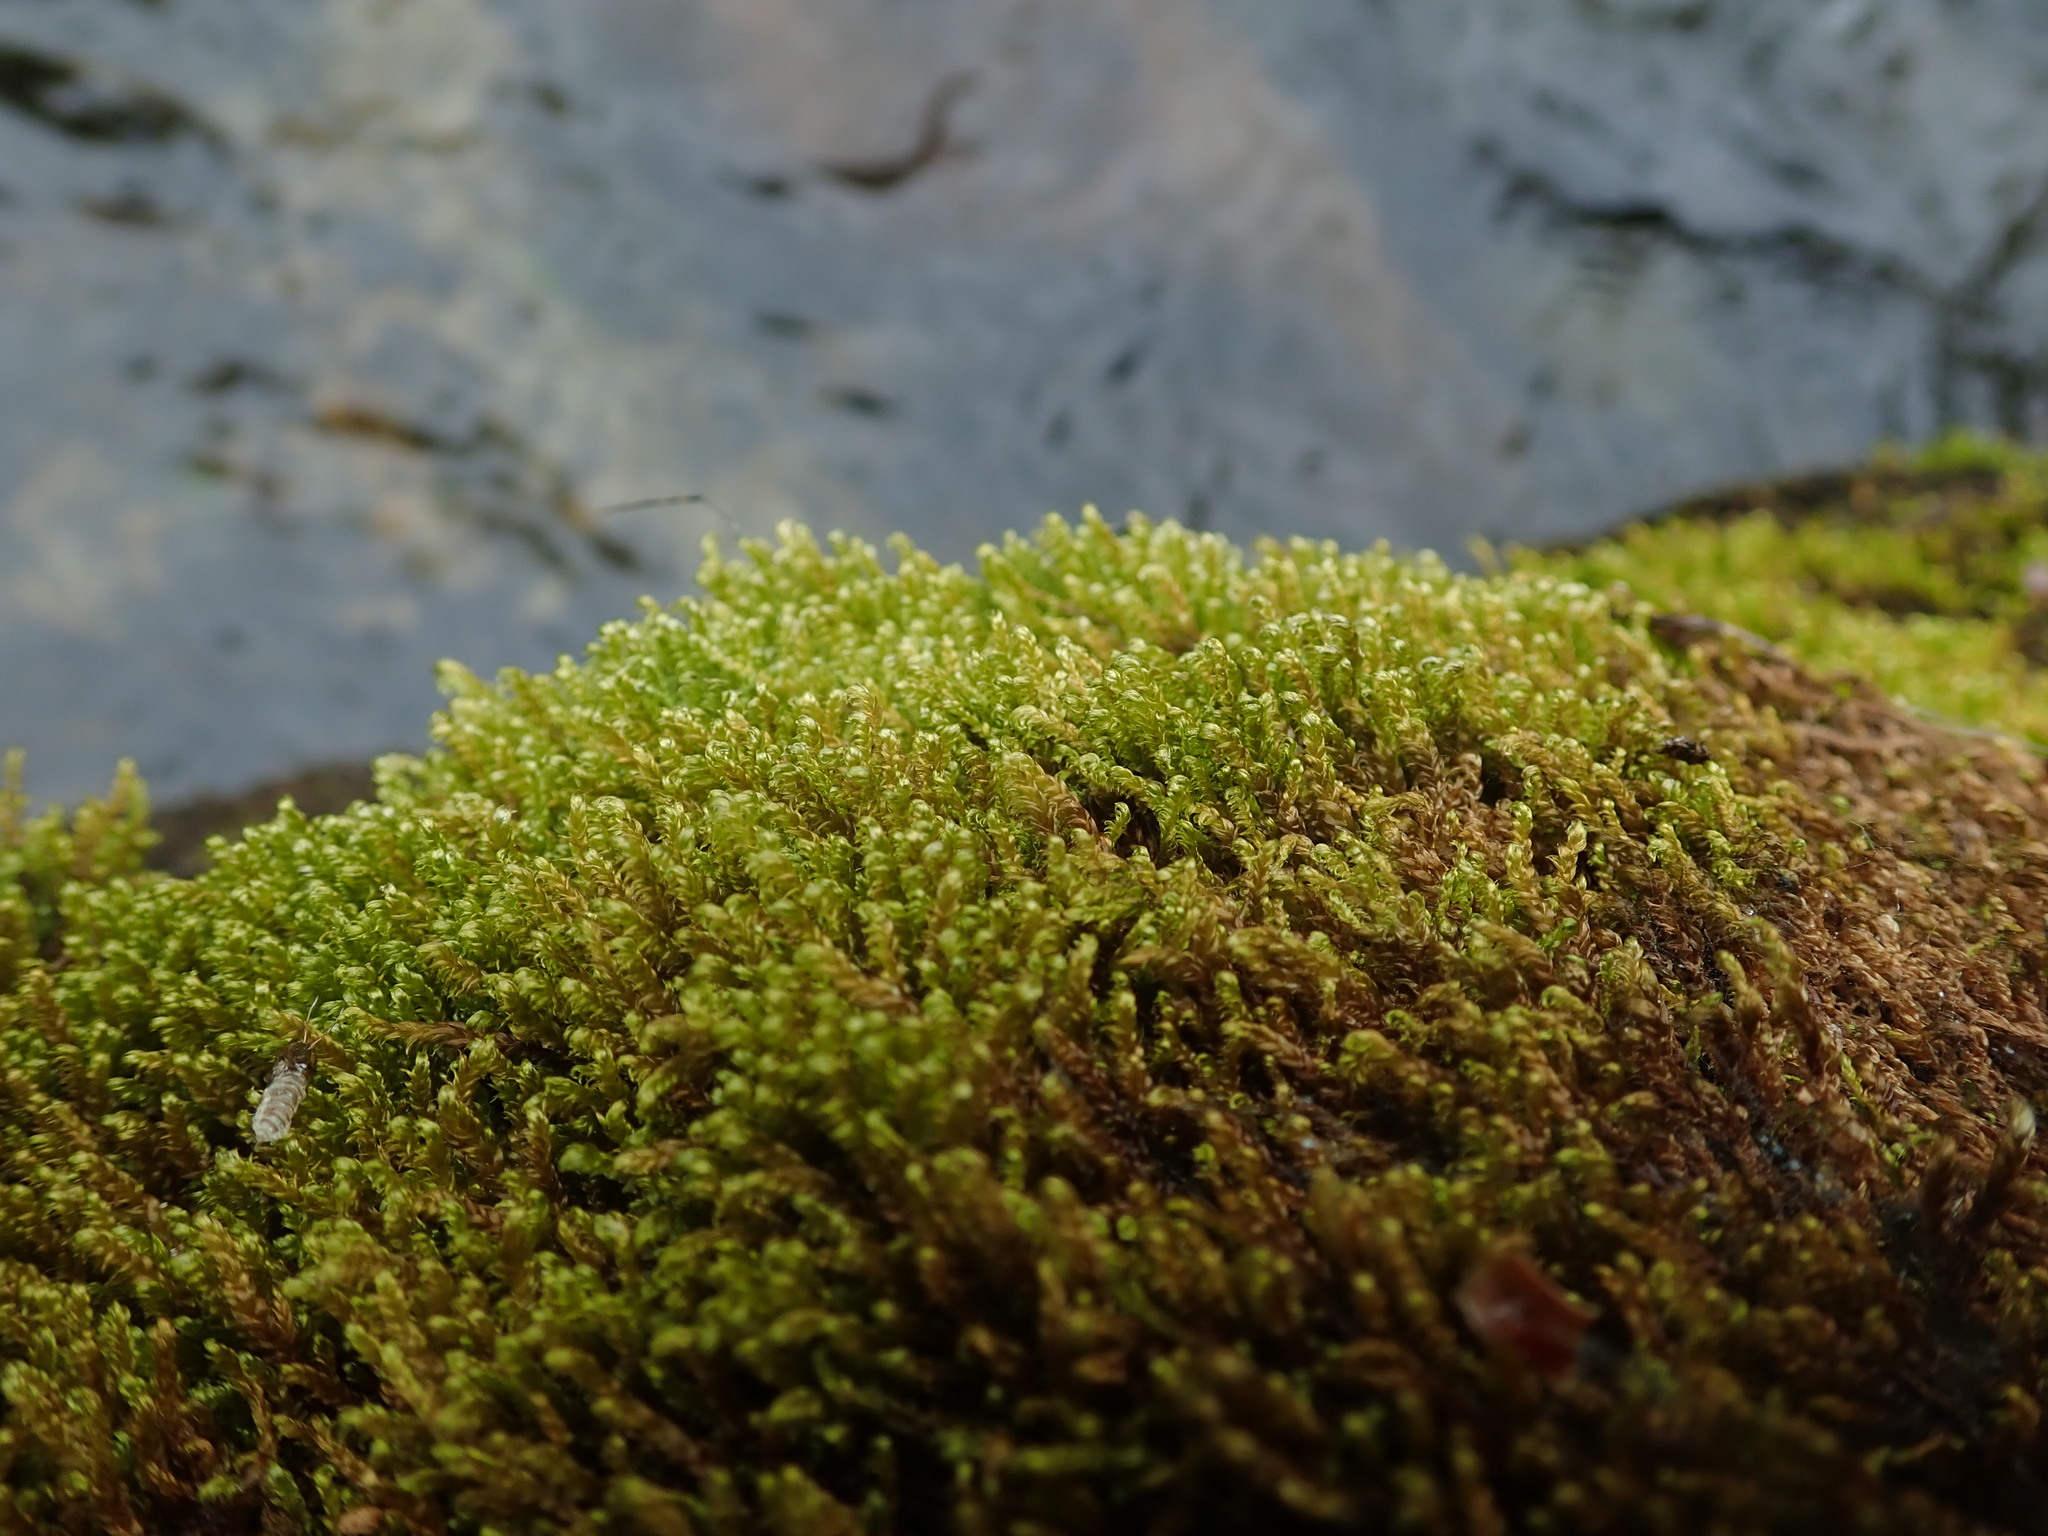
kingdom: Plantae
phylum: Bryophyta
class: Bryopsida
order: Hypnales
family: Scorpidiaceae
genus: Hygrohypnella
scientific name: Hygrohypnella ochracea
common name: Hygrohypnum moss
